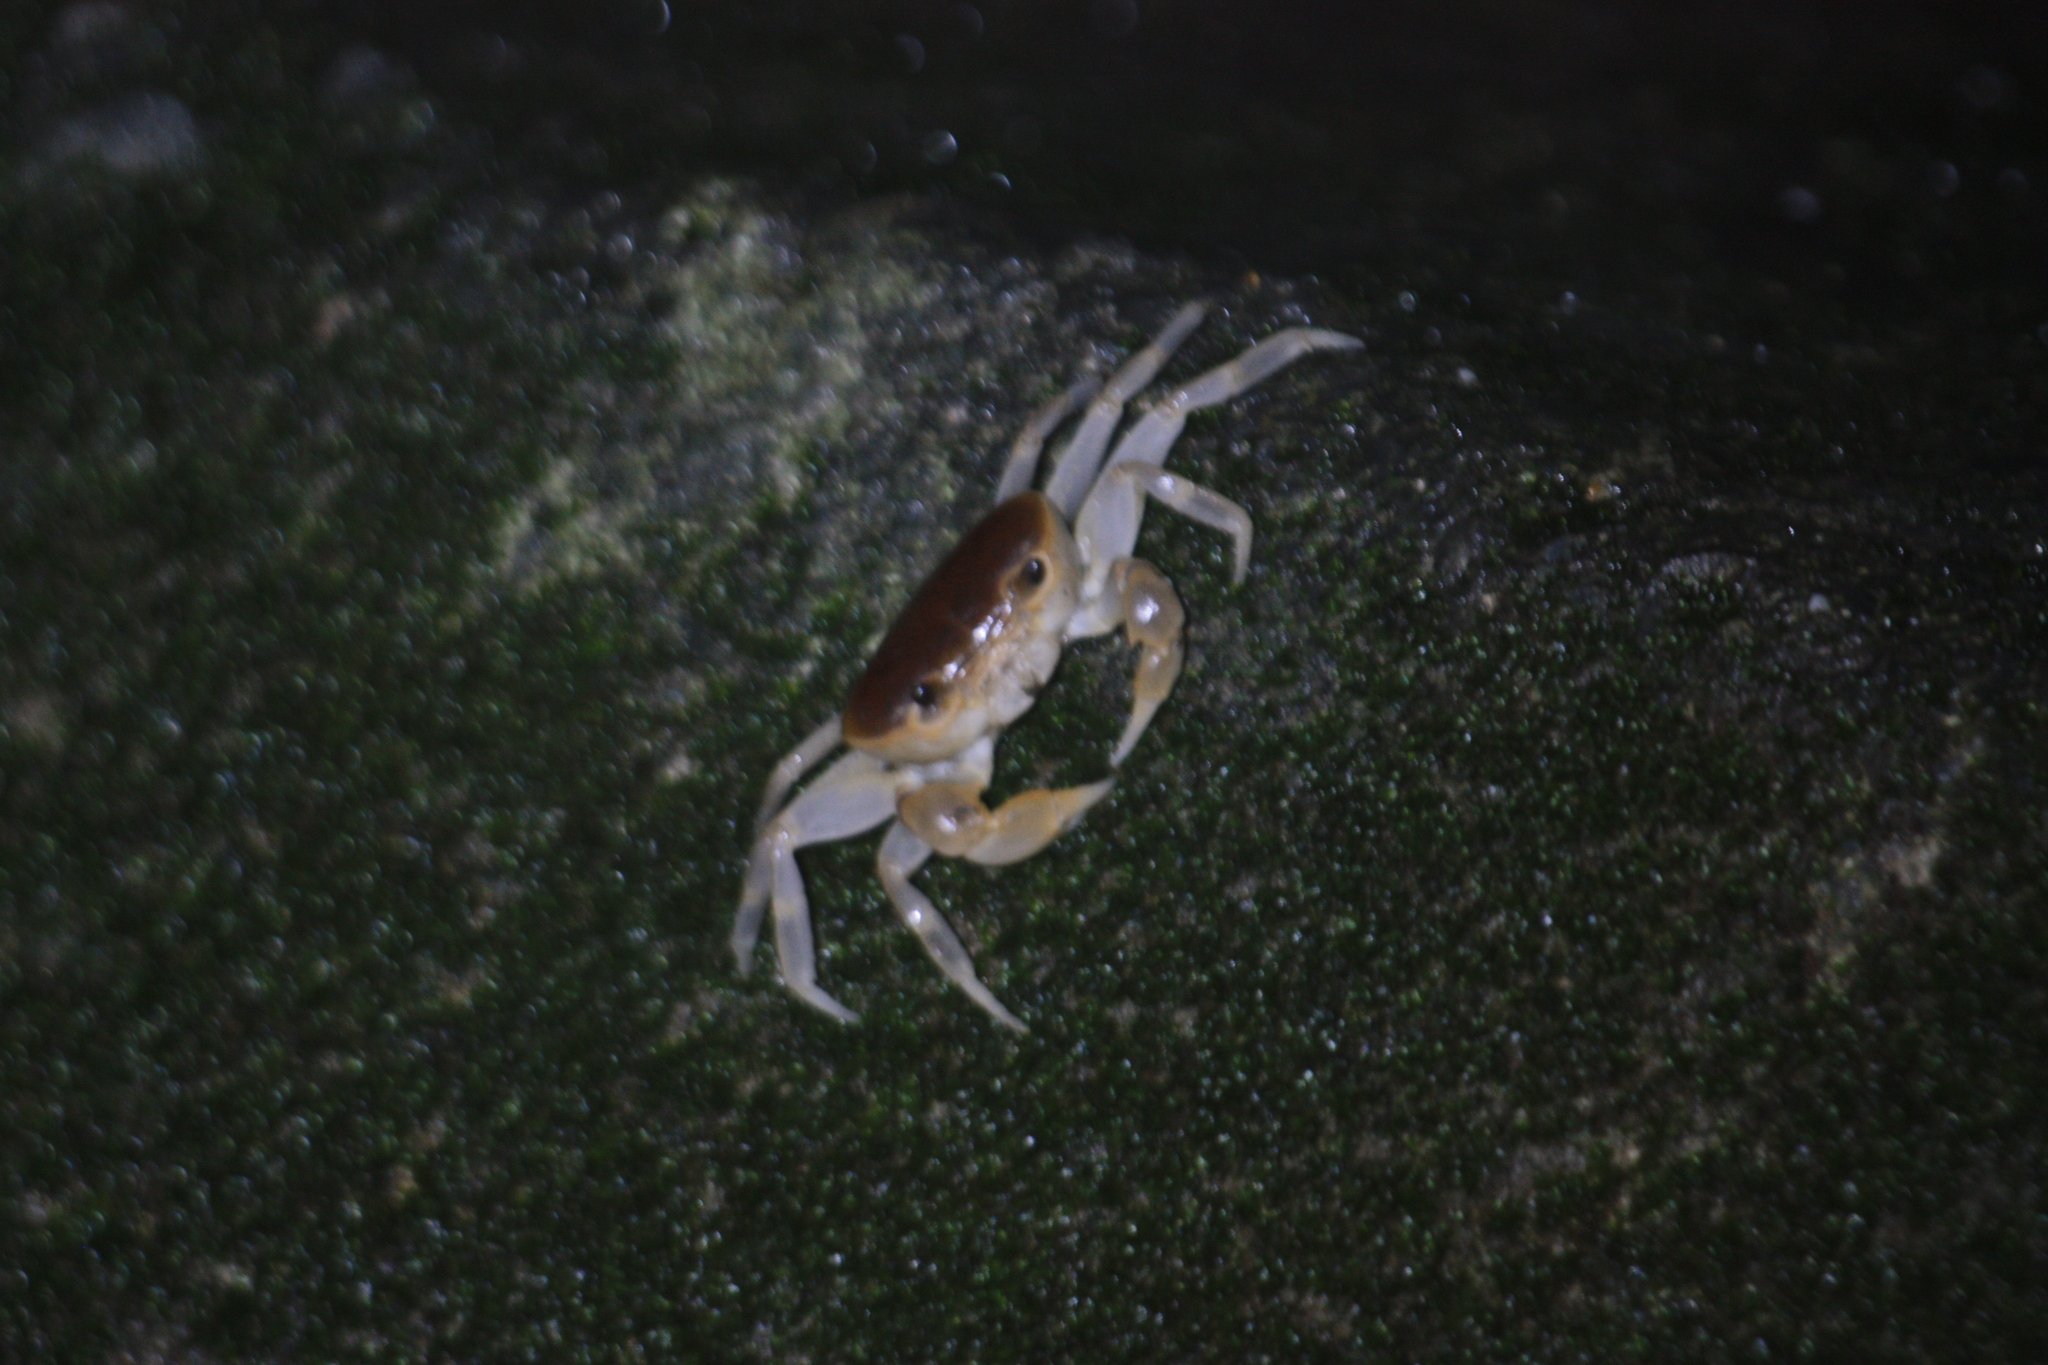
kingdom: Animalia
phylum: Arthropoda
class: Malacostraca
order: Decapoda
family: Potamidae
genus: Geothelphusa
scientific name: Geothelphusa makatao
